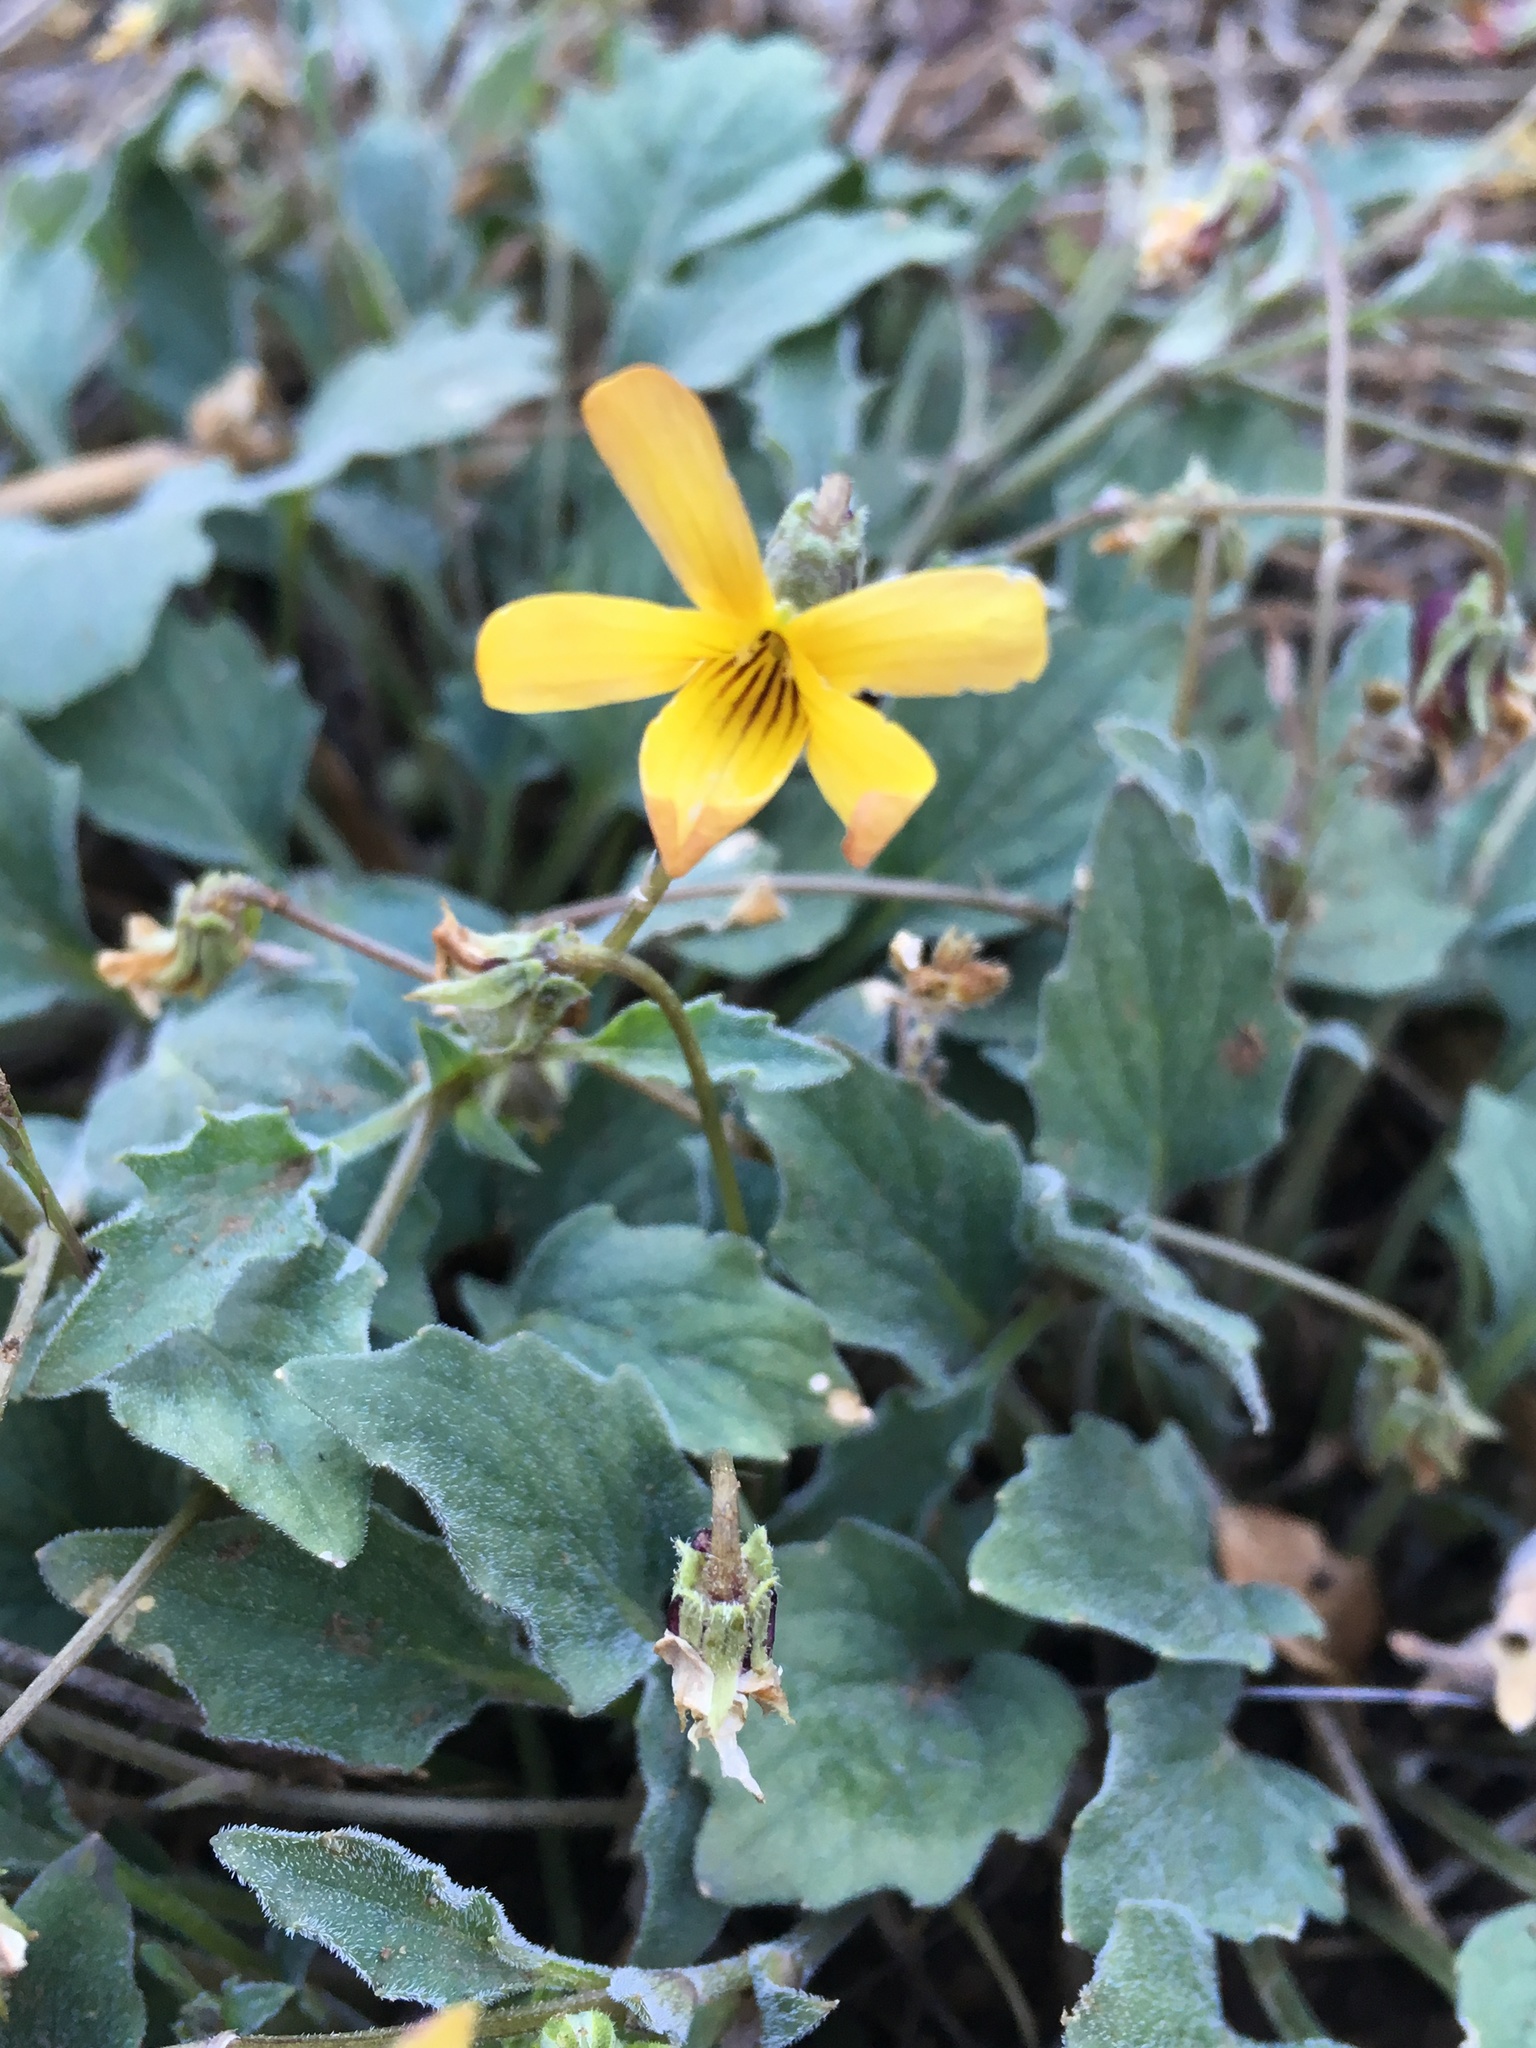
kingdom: Plantae
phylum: Tracheophyta
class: Magnoliopsida
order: Malpighiales
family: Violaceae
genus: Viola
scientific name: Viola purpurea
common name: Pine violet
